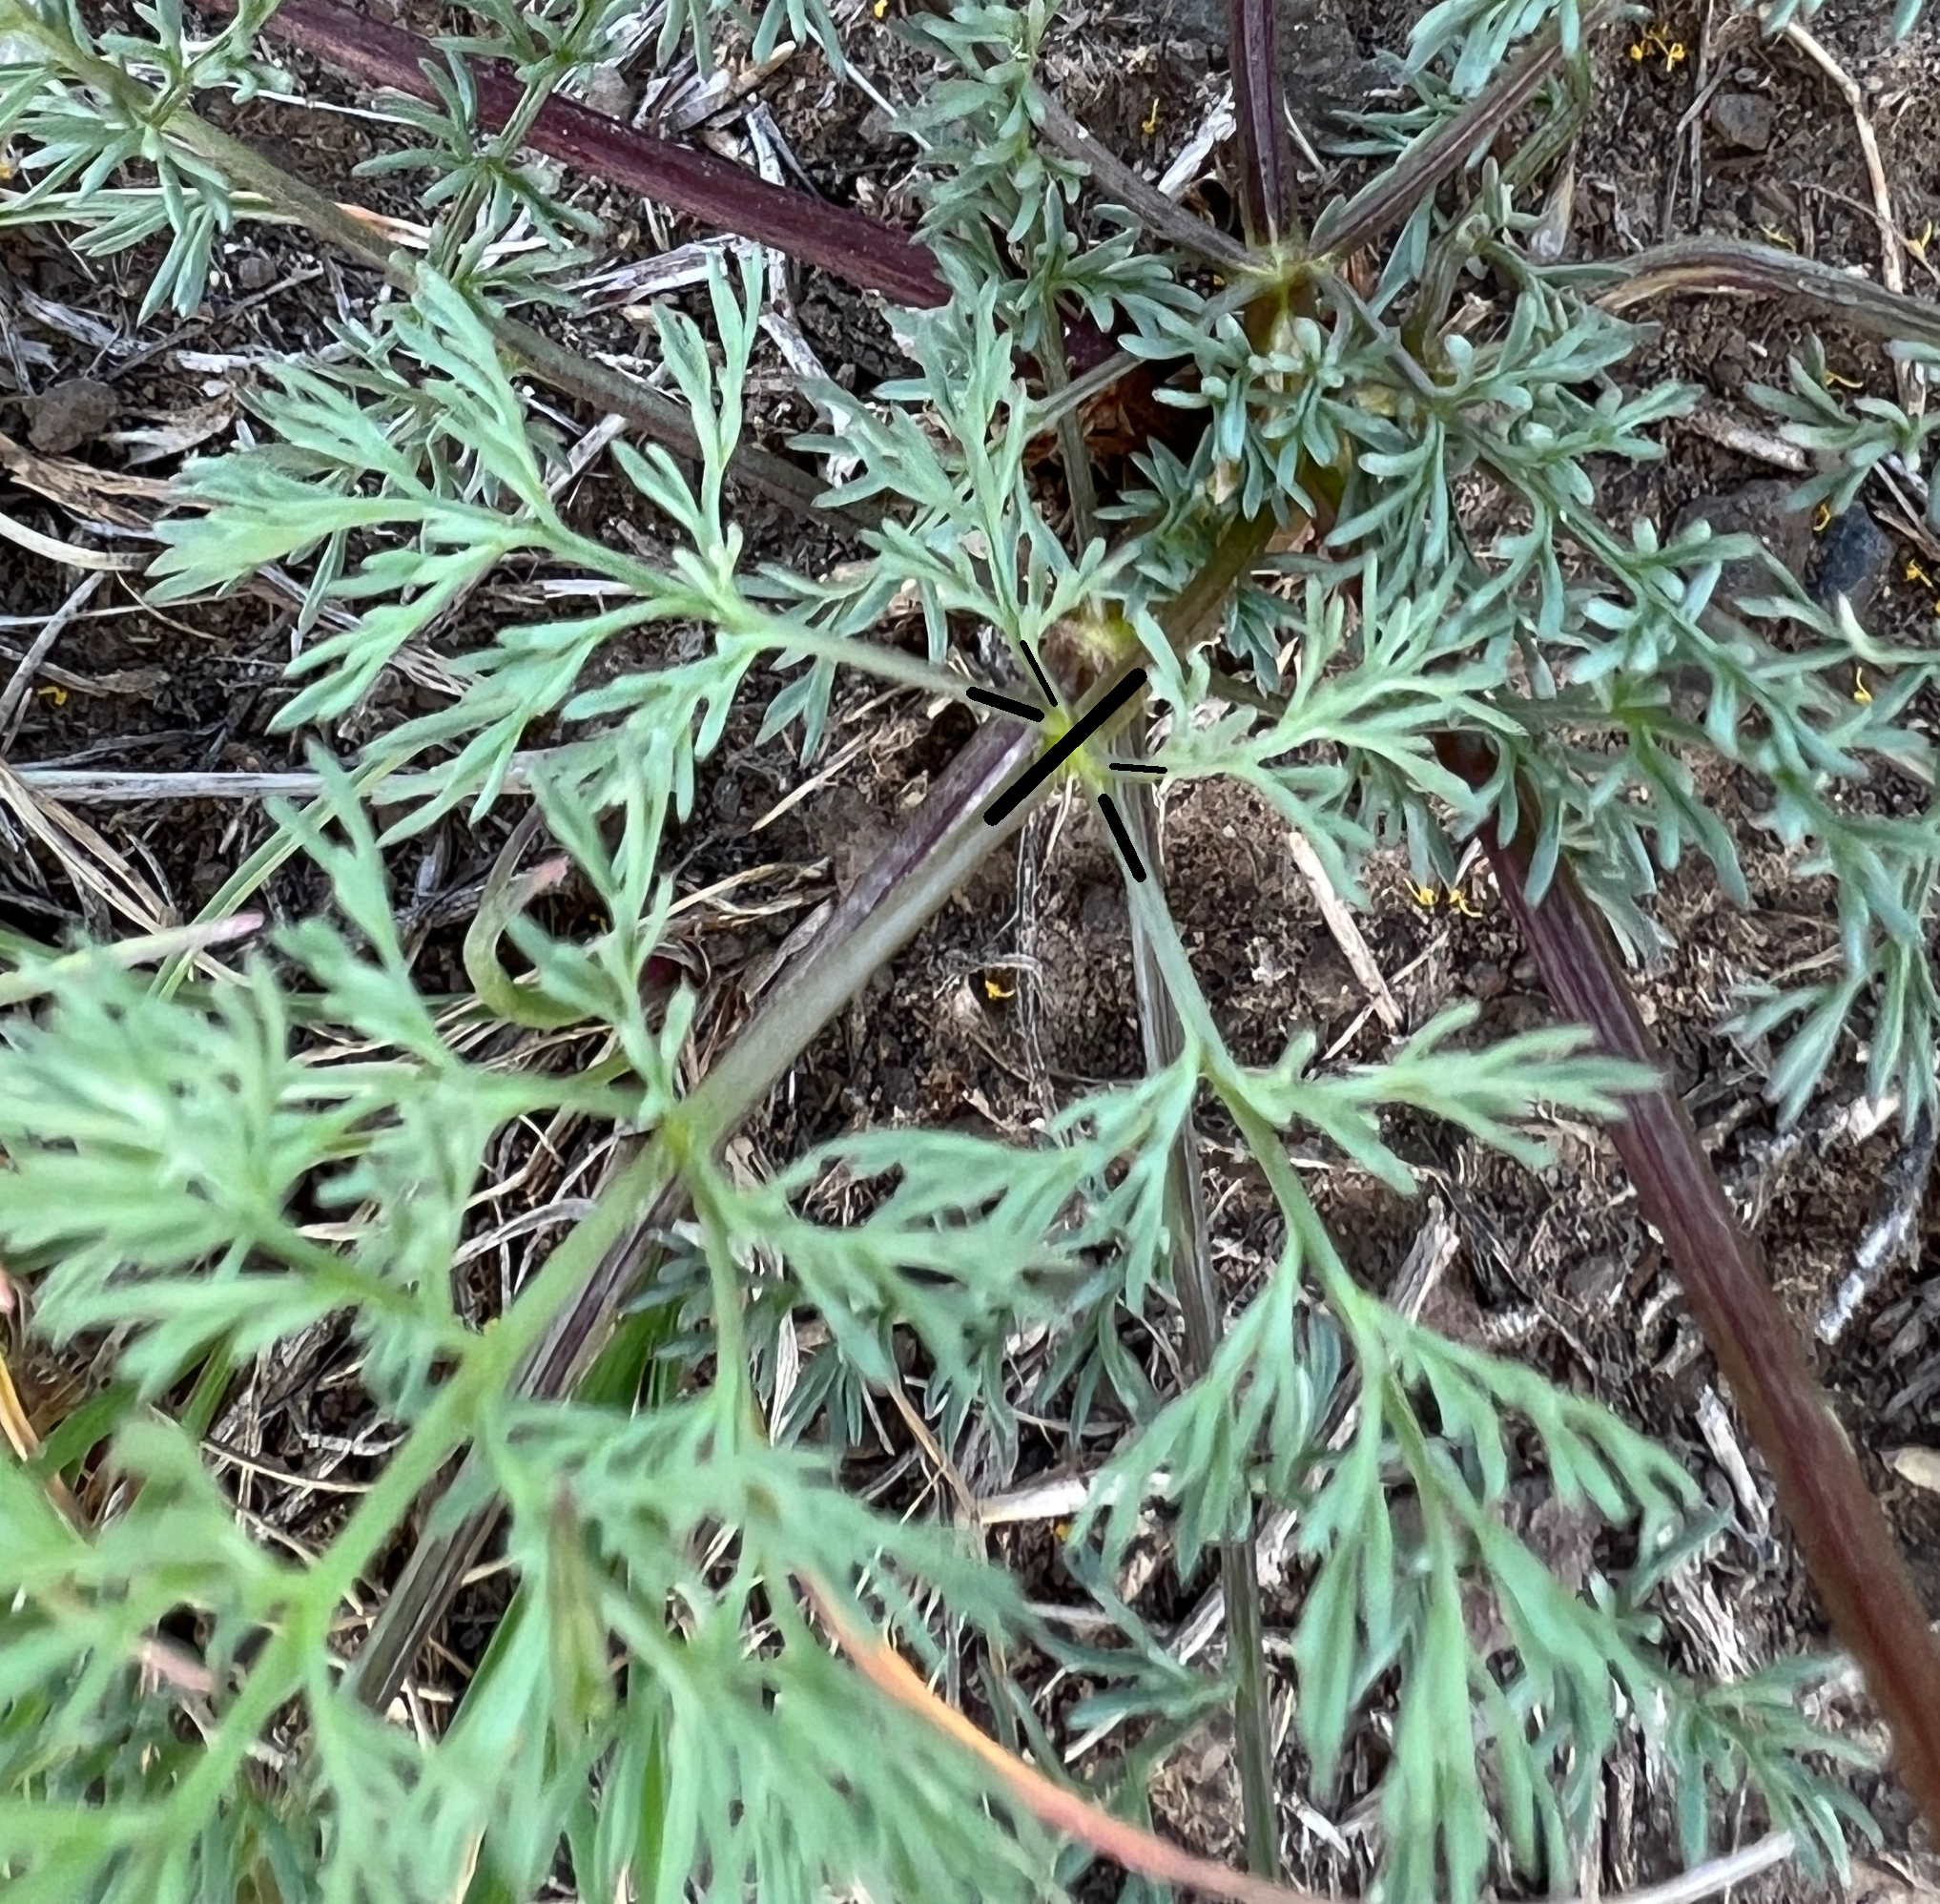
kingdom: Plantae
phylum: Tracheophyta
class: Magnoliopsida
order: Apiales
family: Apiaceae
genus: Lomatium
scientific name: Lomatium quintuplex
